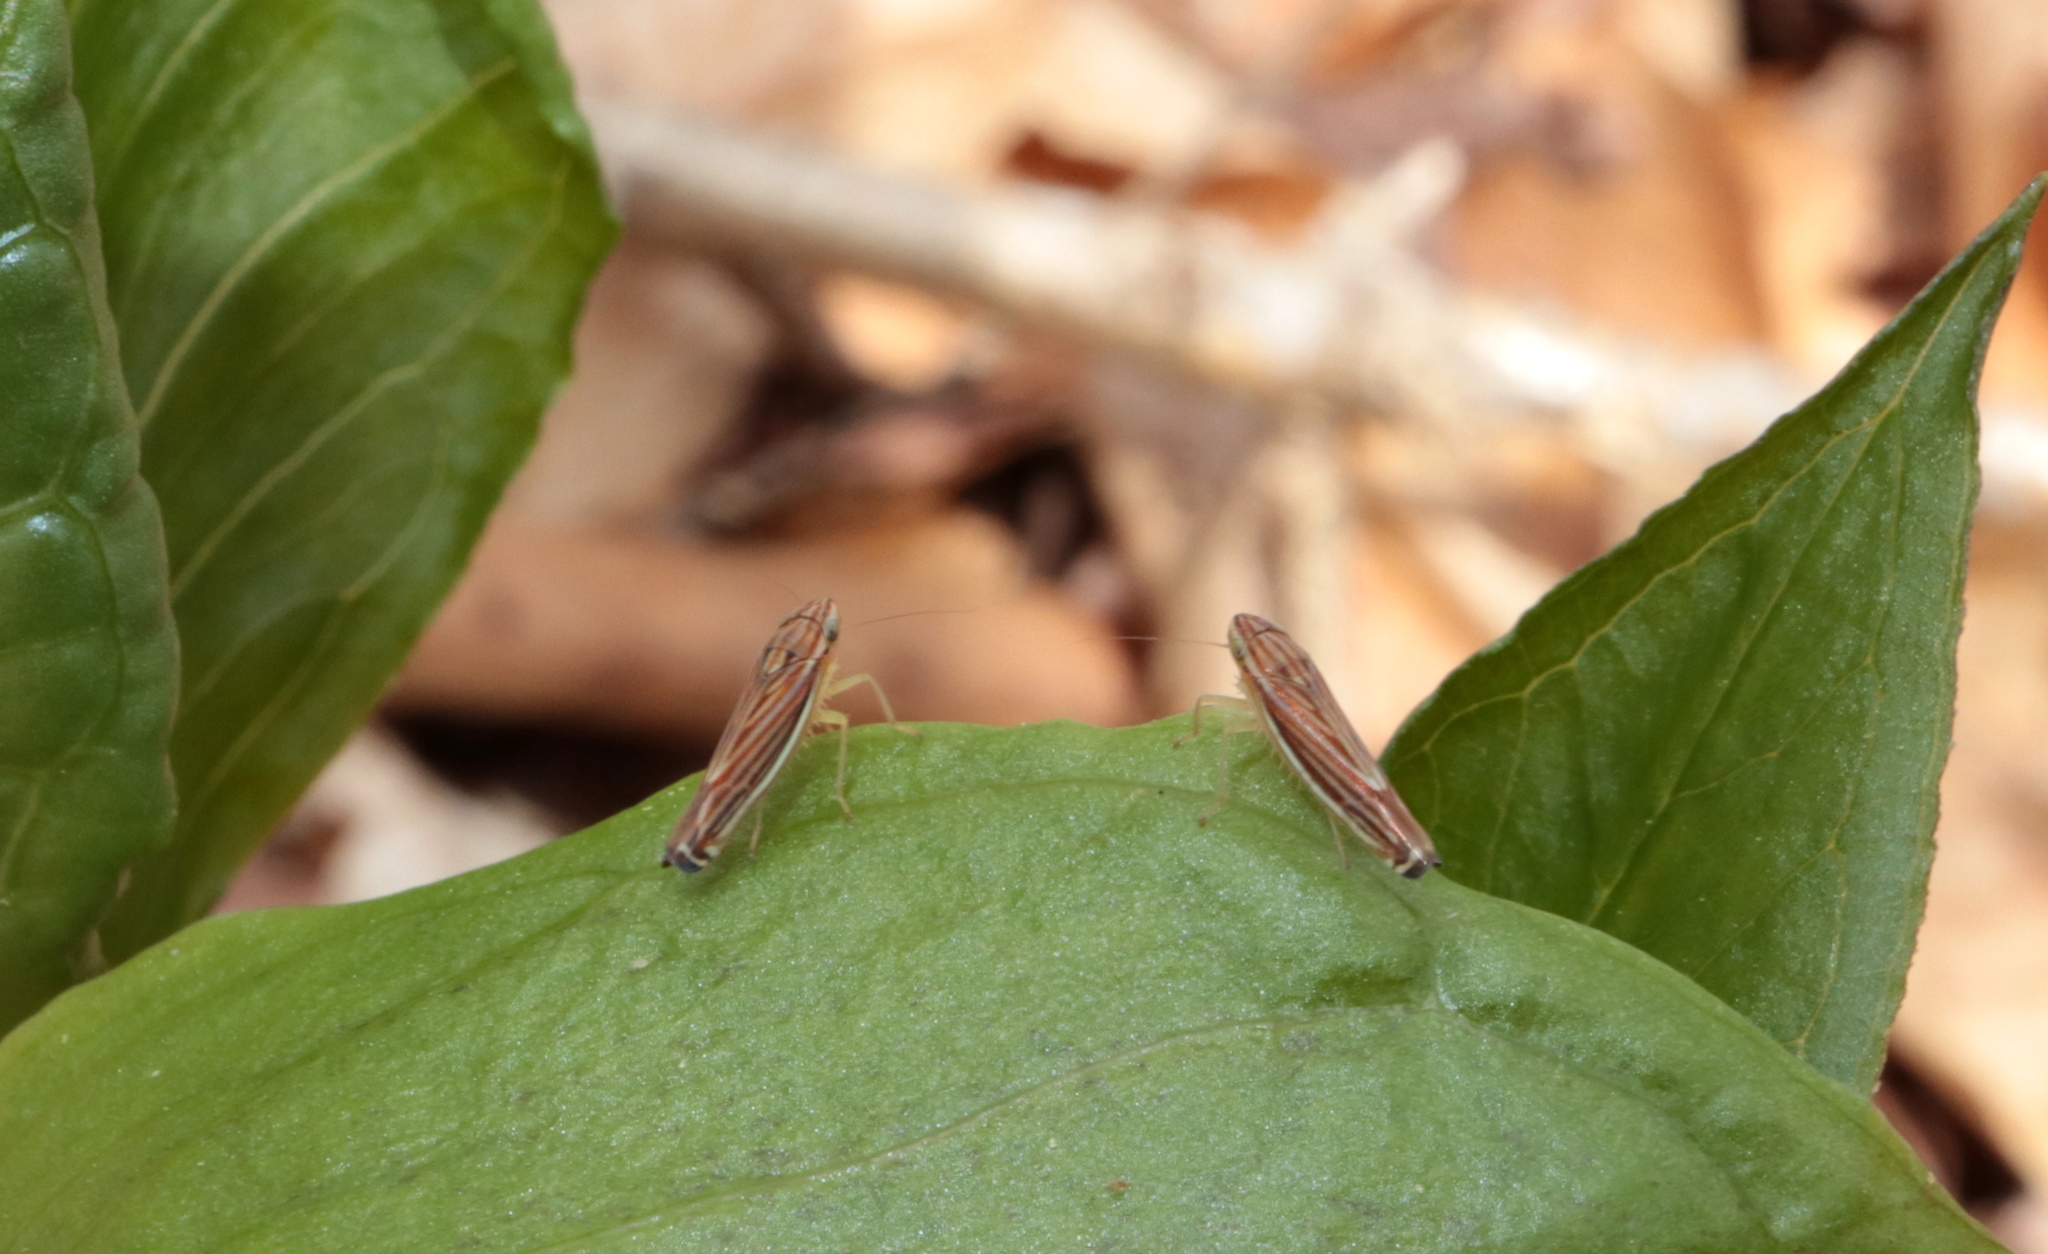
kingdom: Animalia
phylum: Arthropoda
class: Insecta
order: Hemiptera
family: Cicadellidae
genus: Sibovia
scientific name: Sibovia occatoria
